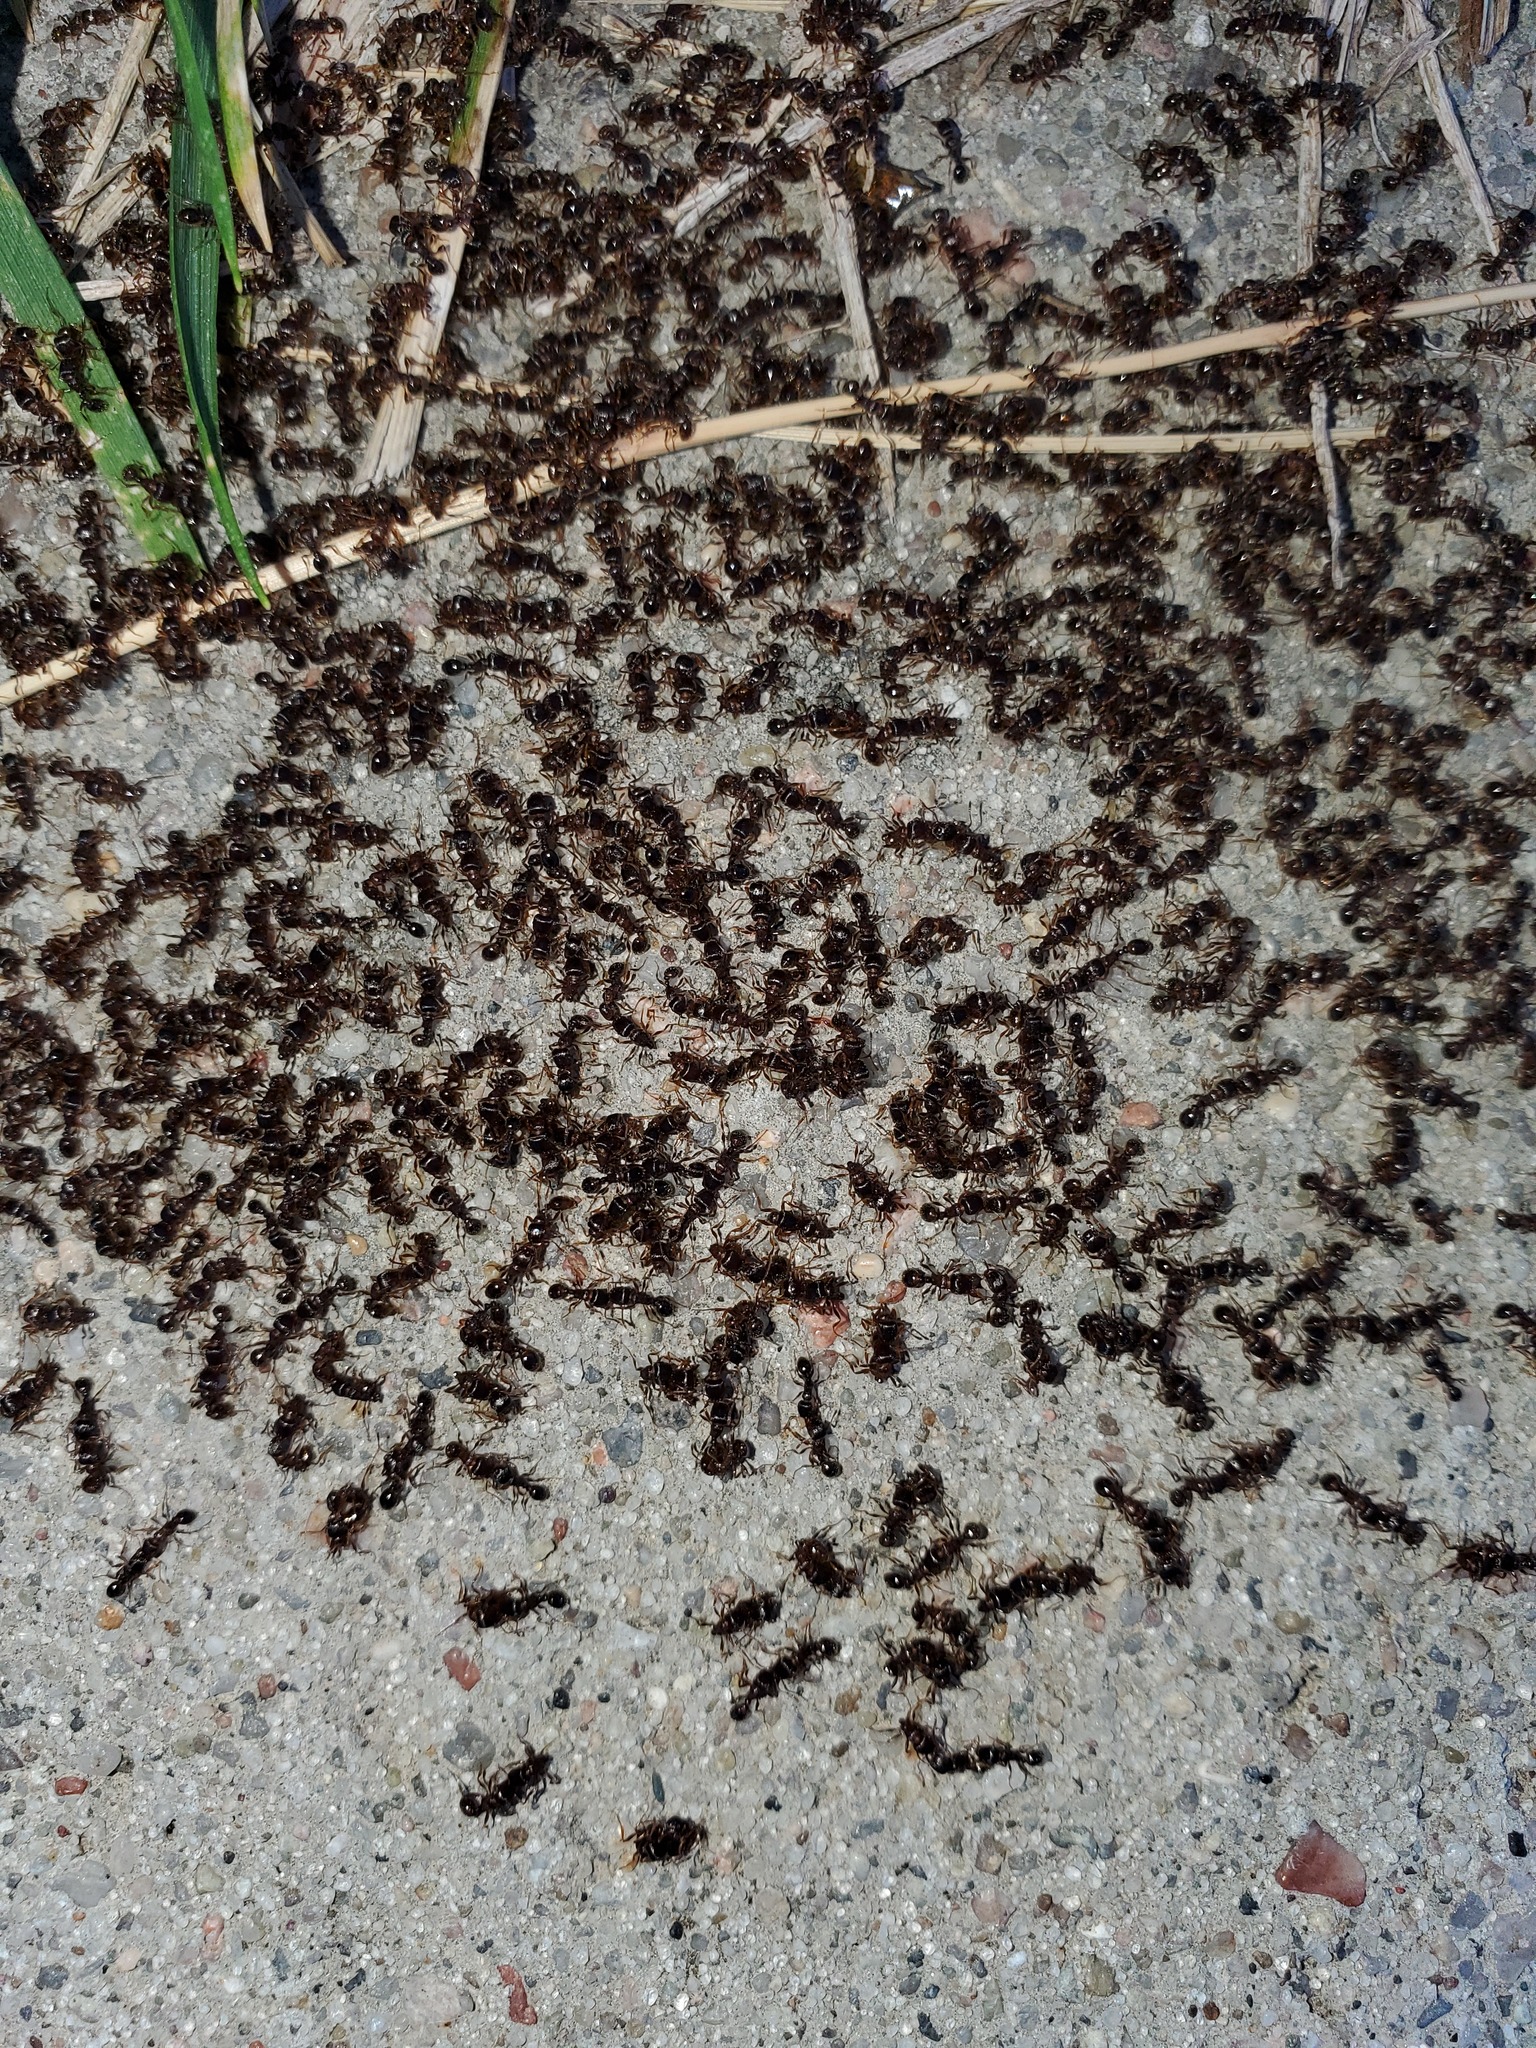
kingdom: Animalia
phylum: Arthropoda
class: Insecta
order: Hymenoptera
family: Formicidae
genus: Tetramorium
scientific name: Tetramorium immigrans
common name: Pavement ant
